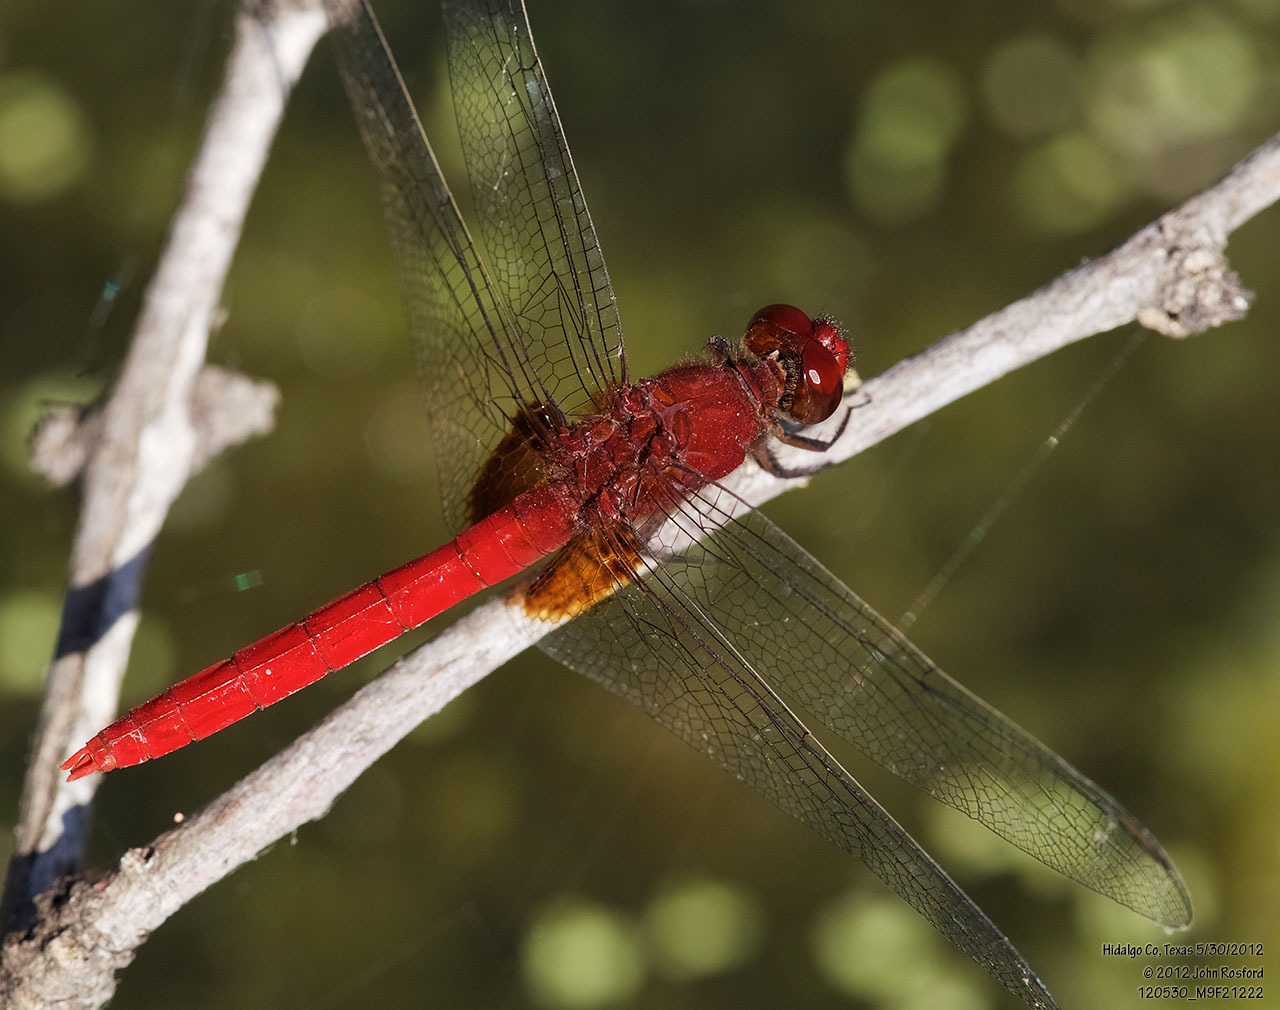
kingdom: Animalia
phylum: Arthropoda
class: Insecta
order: Odonata
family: Libellulidae
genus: Erythemis
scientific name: Erythemis mithroides
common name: Claret pondhawk
